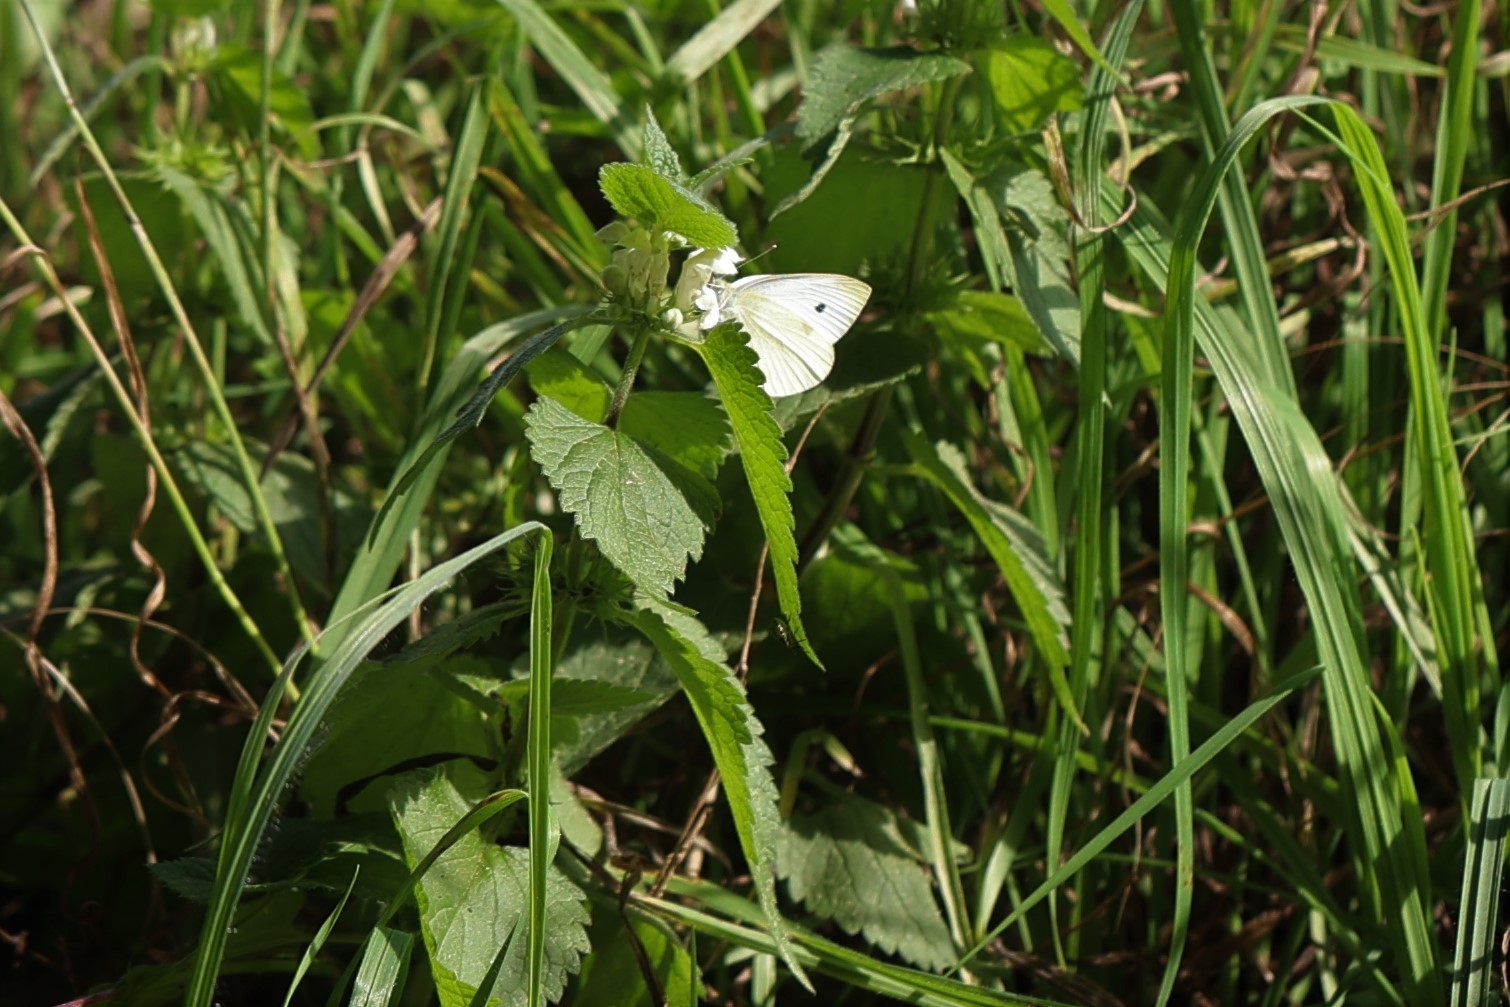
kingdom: Animalia
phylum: Arthropoda
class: Insecta
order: Lepidoptera
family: Pieridae
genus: Pieris
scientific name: Pieris rapae
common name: Small white
